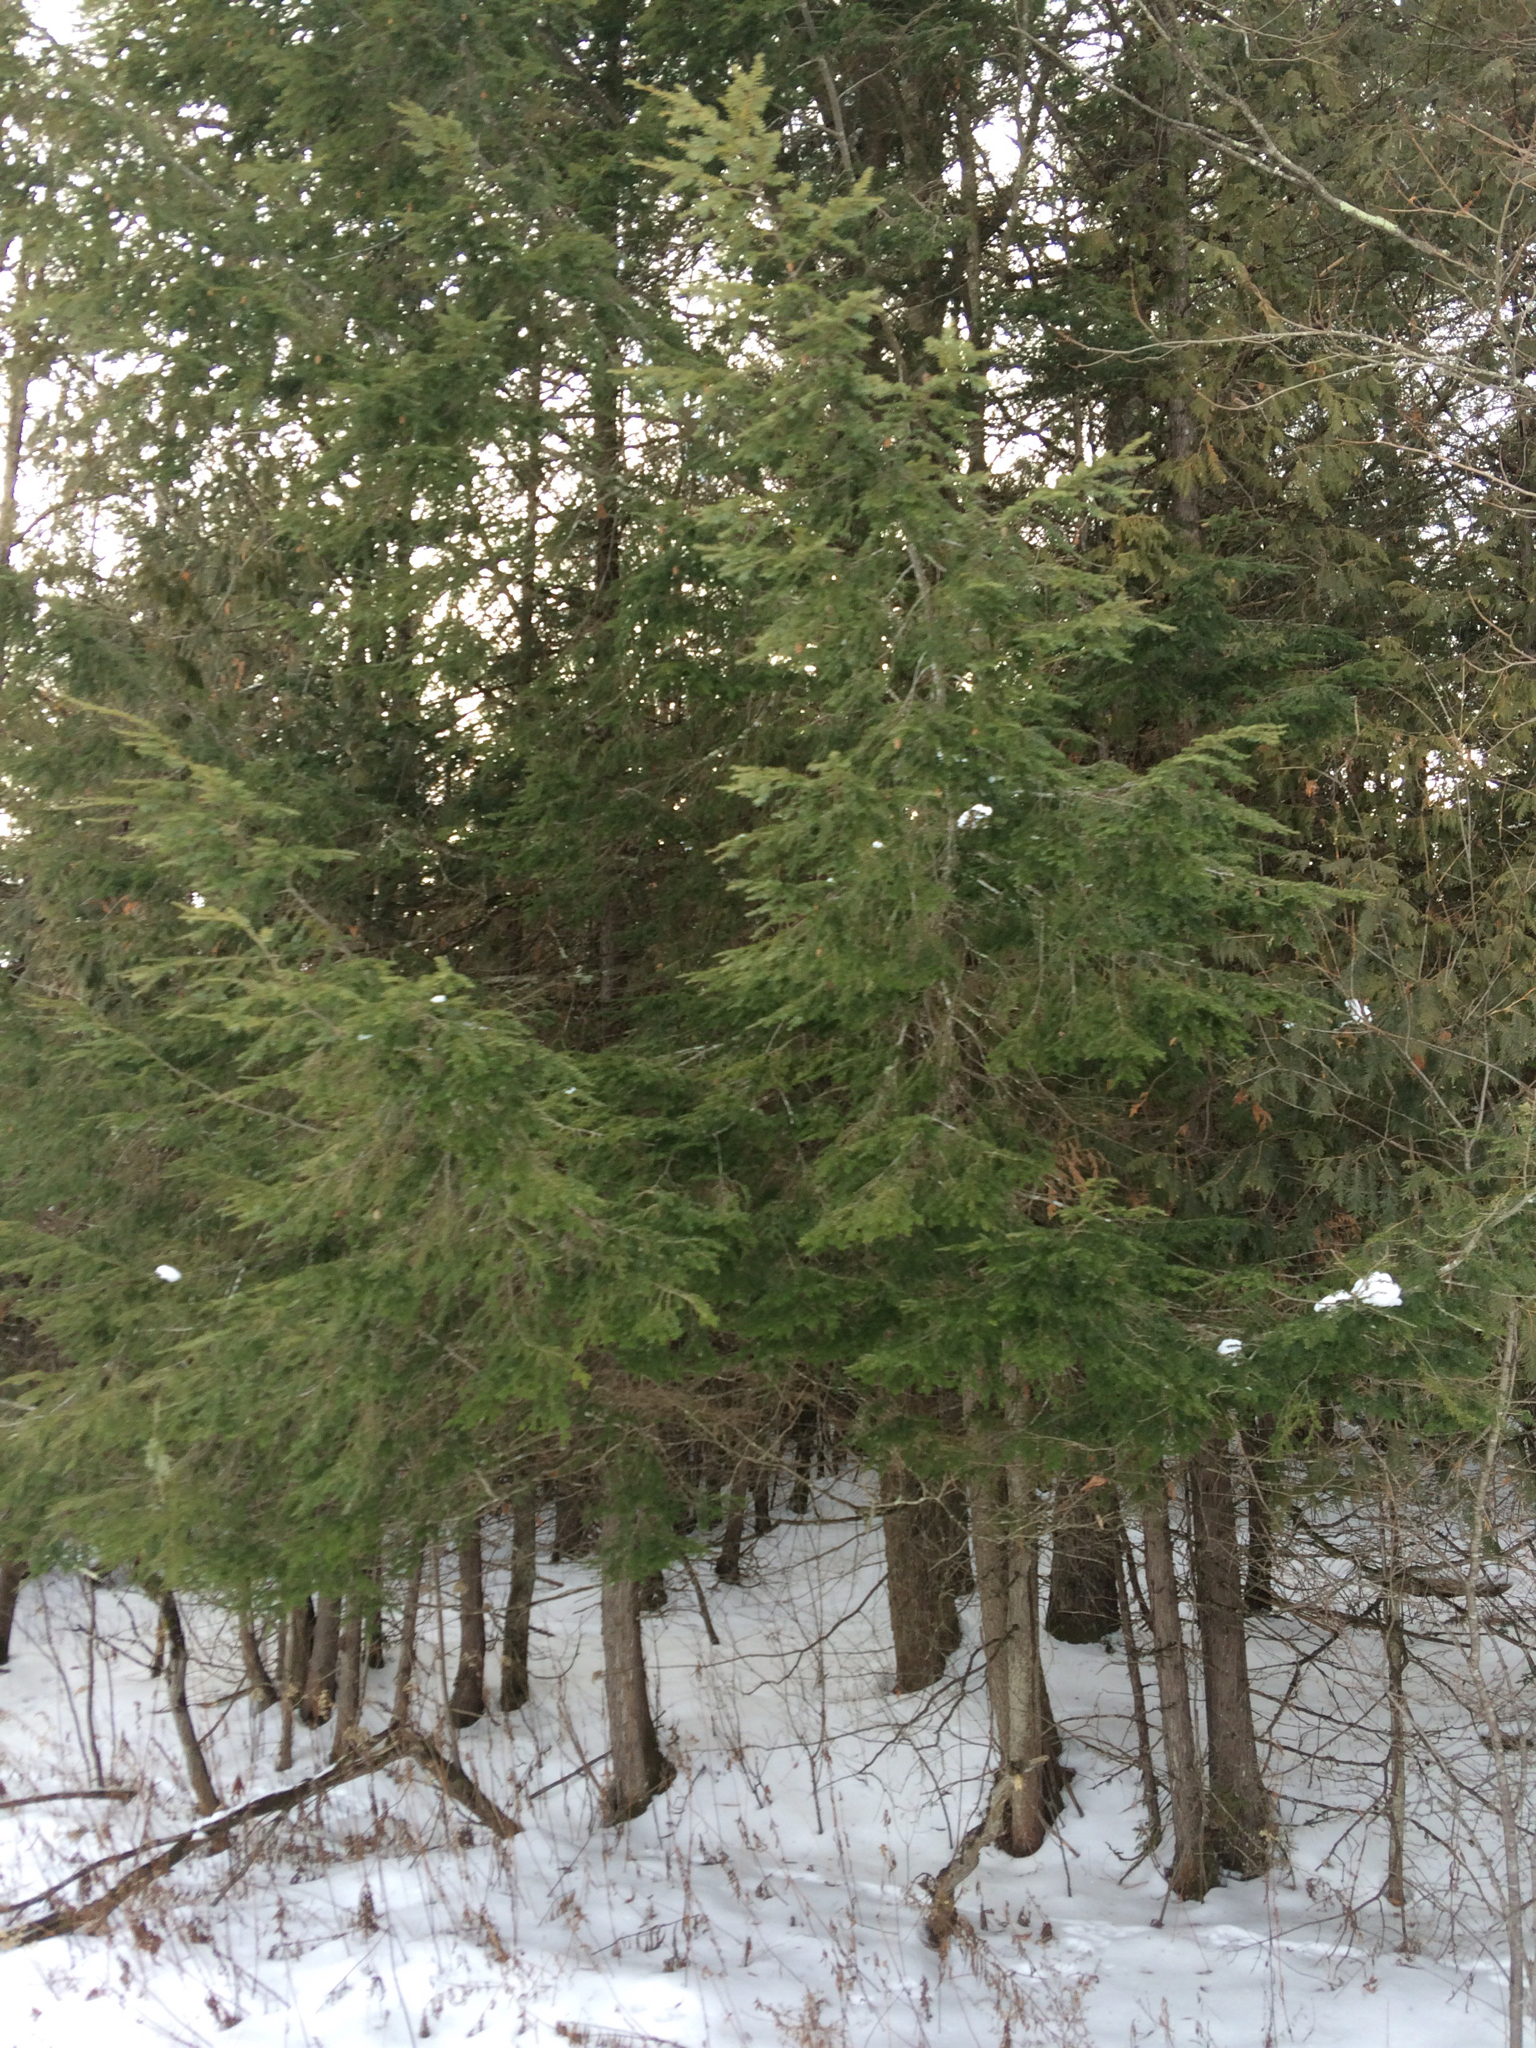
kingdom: Plantae
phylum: Tracheophyta
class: Pinopsida
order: Pinales
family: Pinaceae
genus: Tsuga
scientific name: Tsuga canadensis
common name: Eastern hemlock
